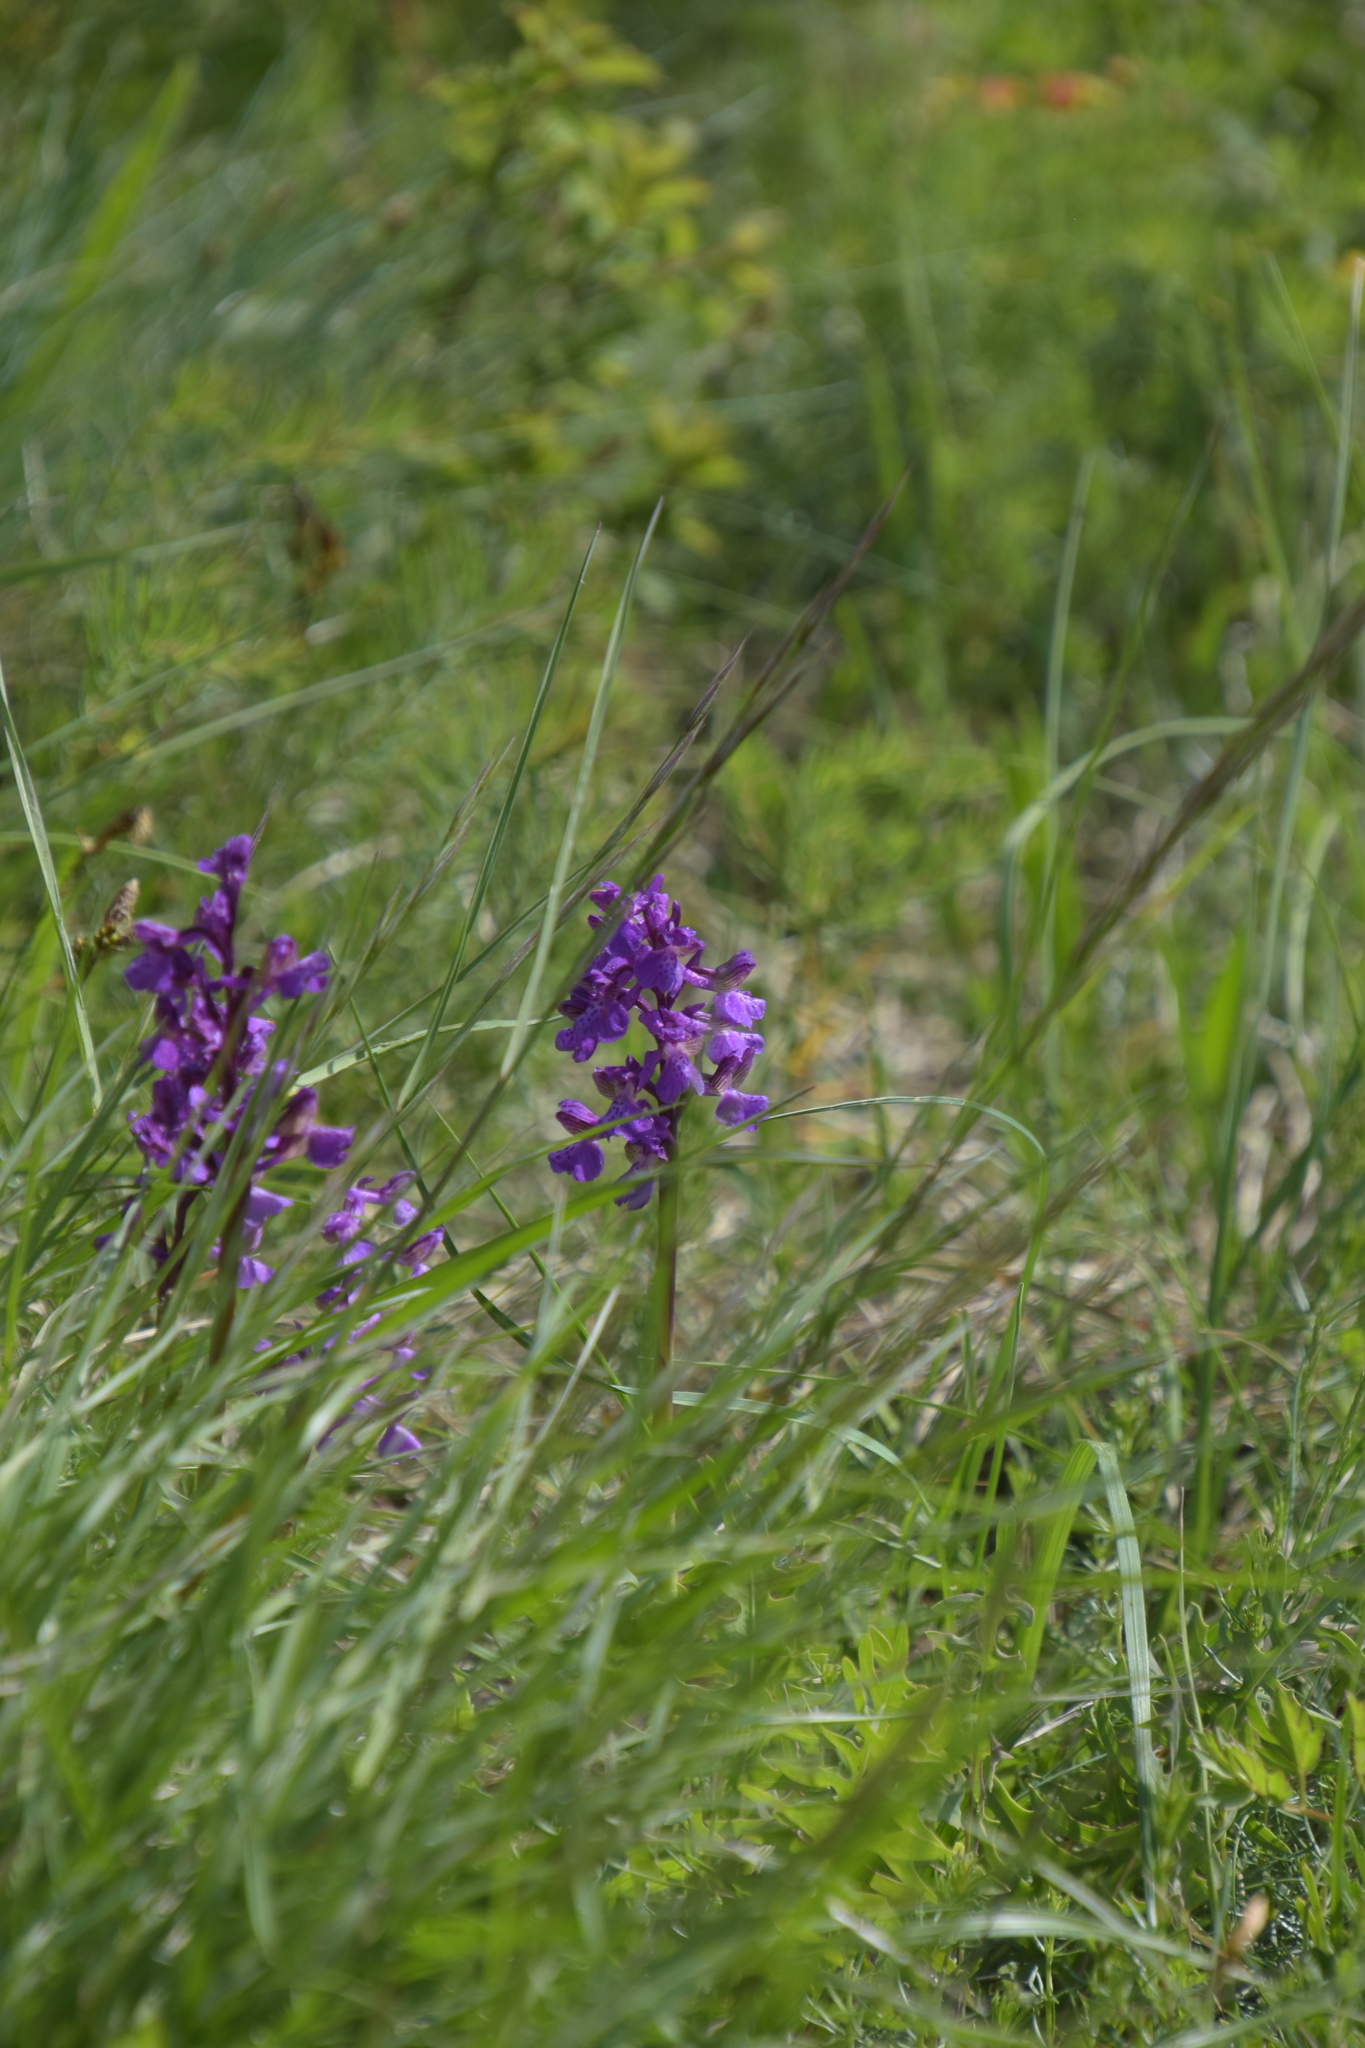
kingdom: Plantae
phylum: Tracheophyta
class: Liliopsida
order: Asparagales
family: Orchidaceae
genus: Anacamptis
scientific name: Anacamptis morio
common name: Green-winged orchid
